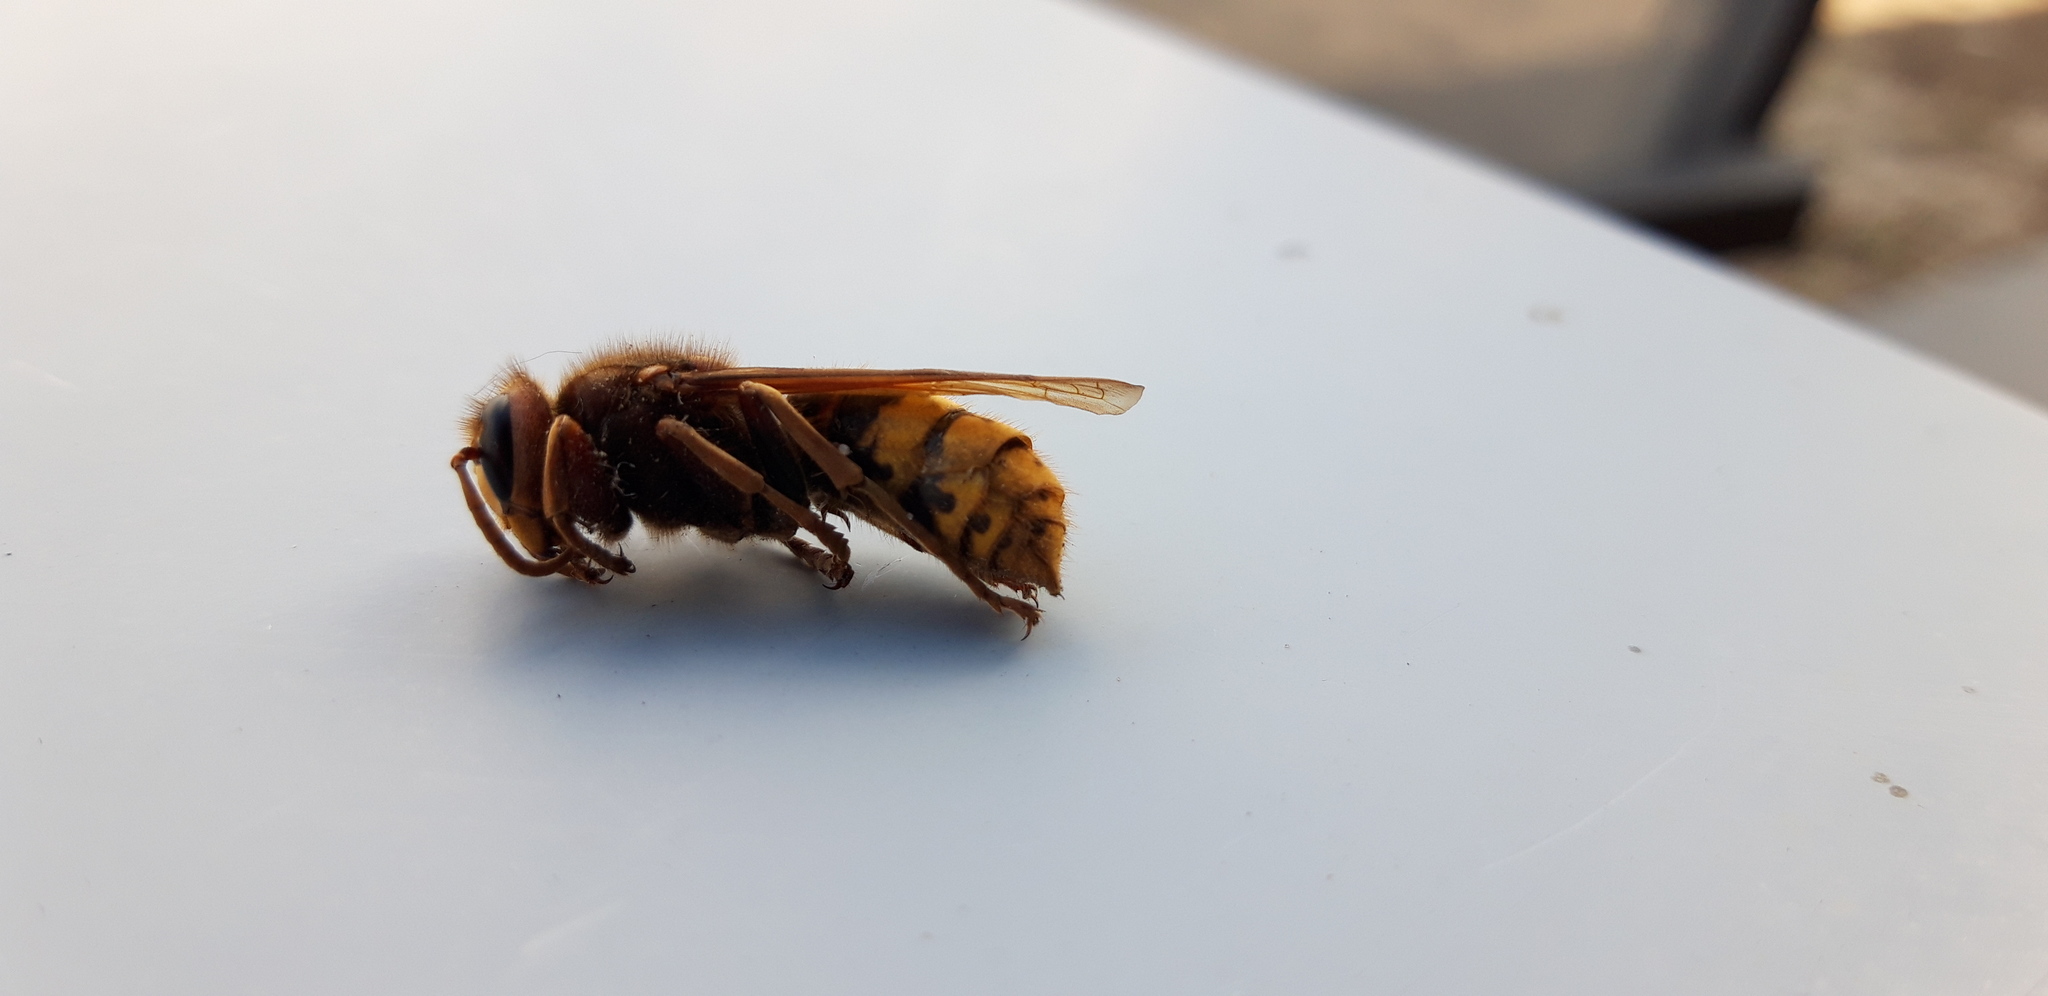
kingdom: Animalia
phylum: Arthropoda
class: Insecta
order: Hymenoptera
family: Vespidae
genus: Vespa
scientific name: Vespa crabro
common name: Hornet
